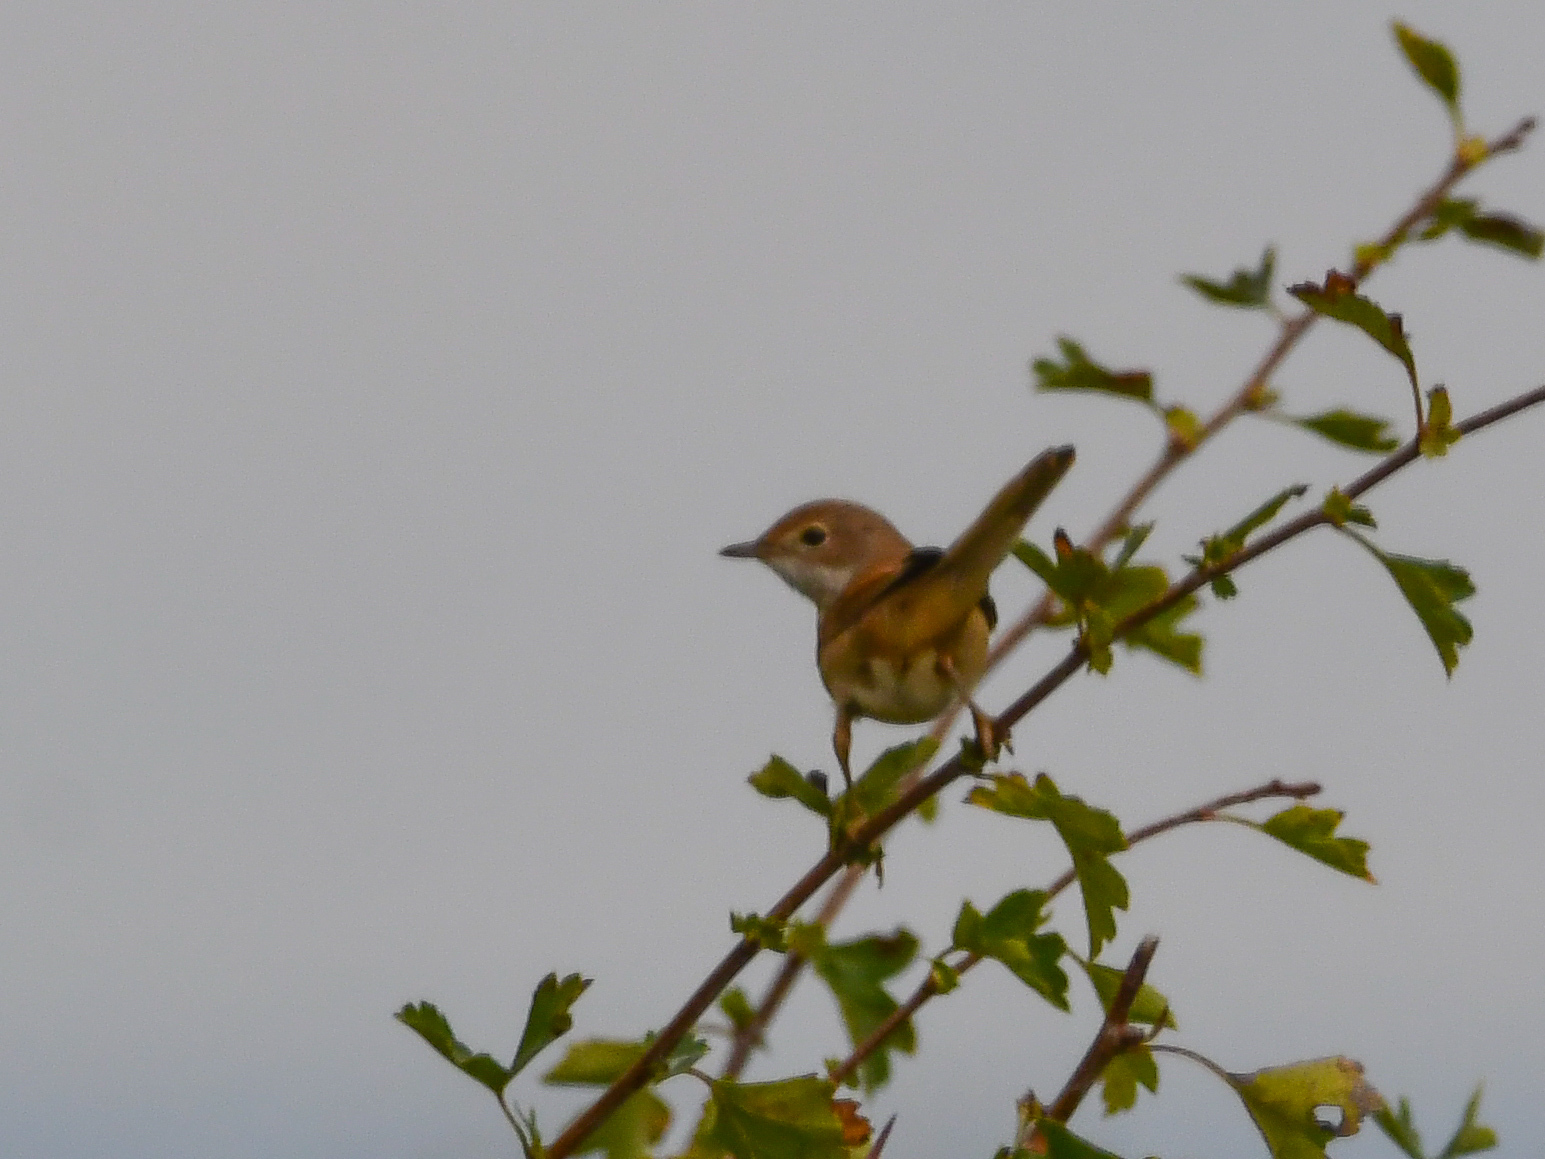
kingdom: Animalia
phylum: Chordata
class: Aves
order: Passeriformes
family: Sylviidae
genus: Sylvia
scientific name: Sylvia communis
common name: Common whitethroat
